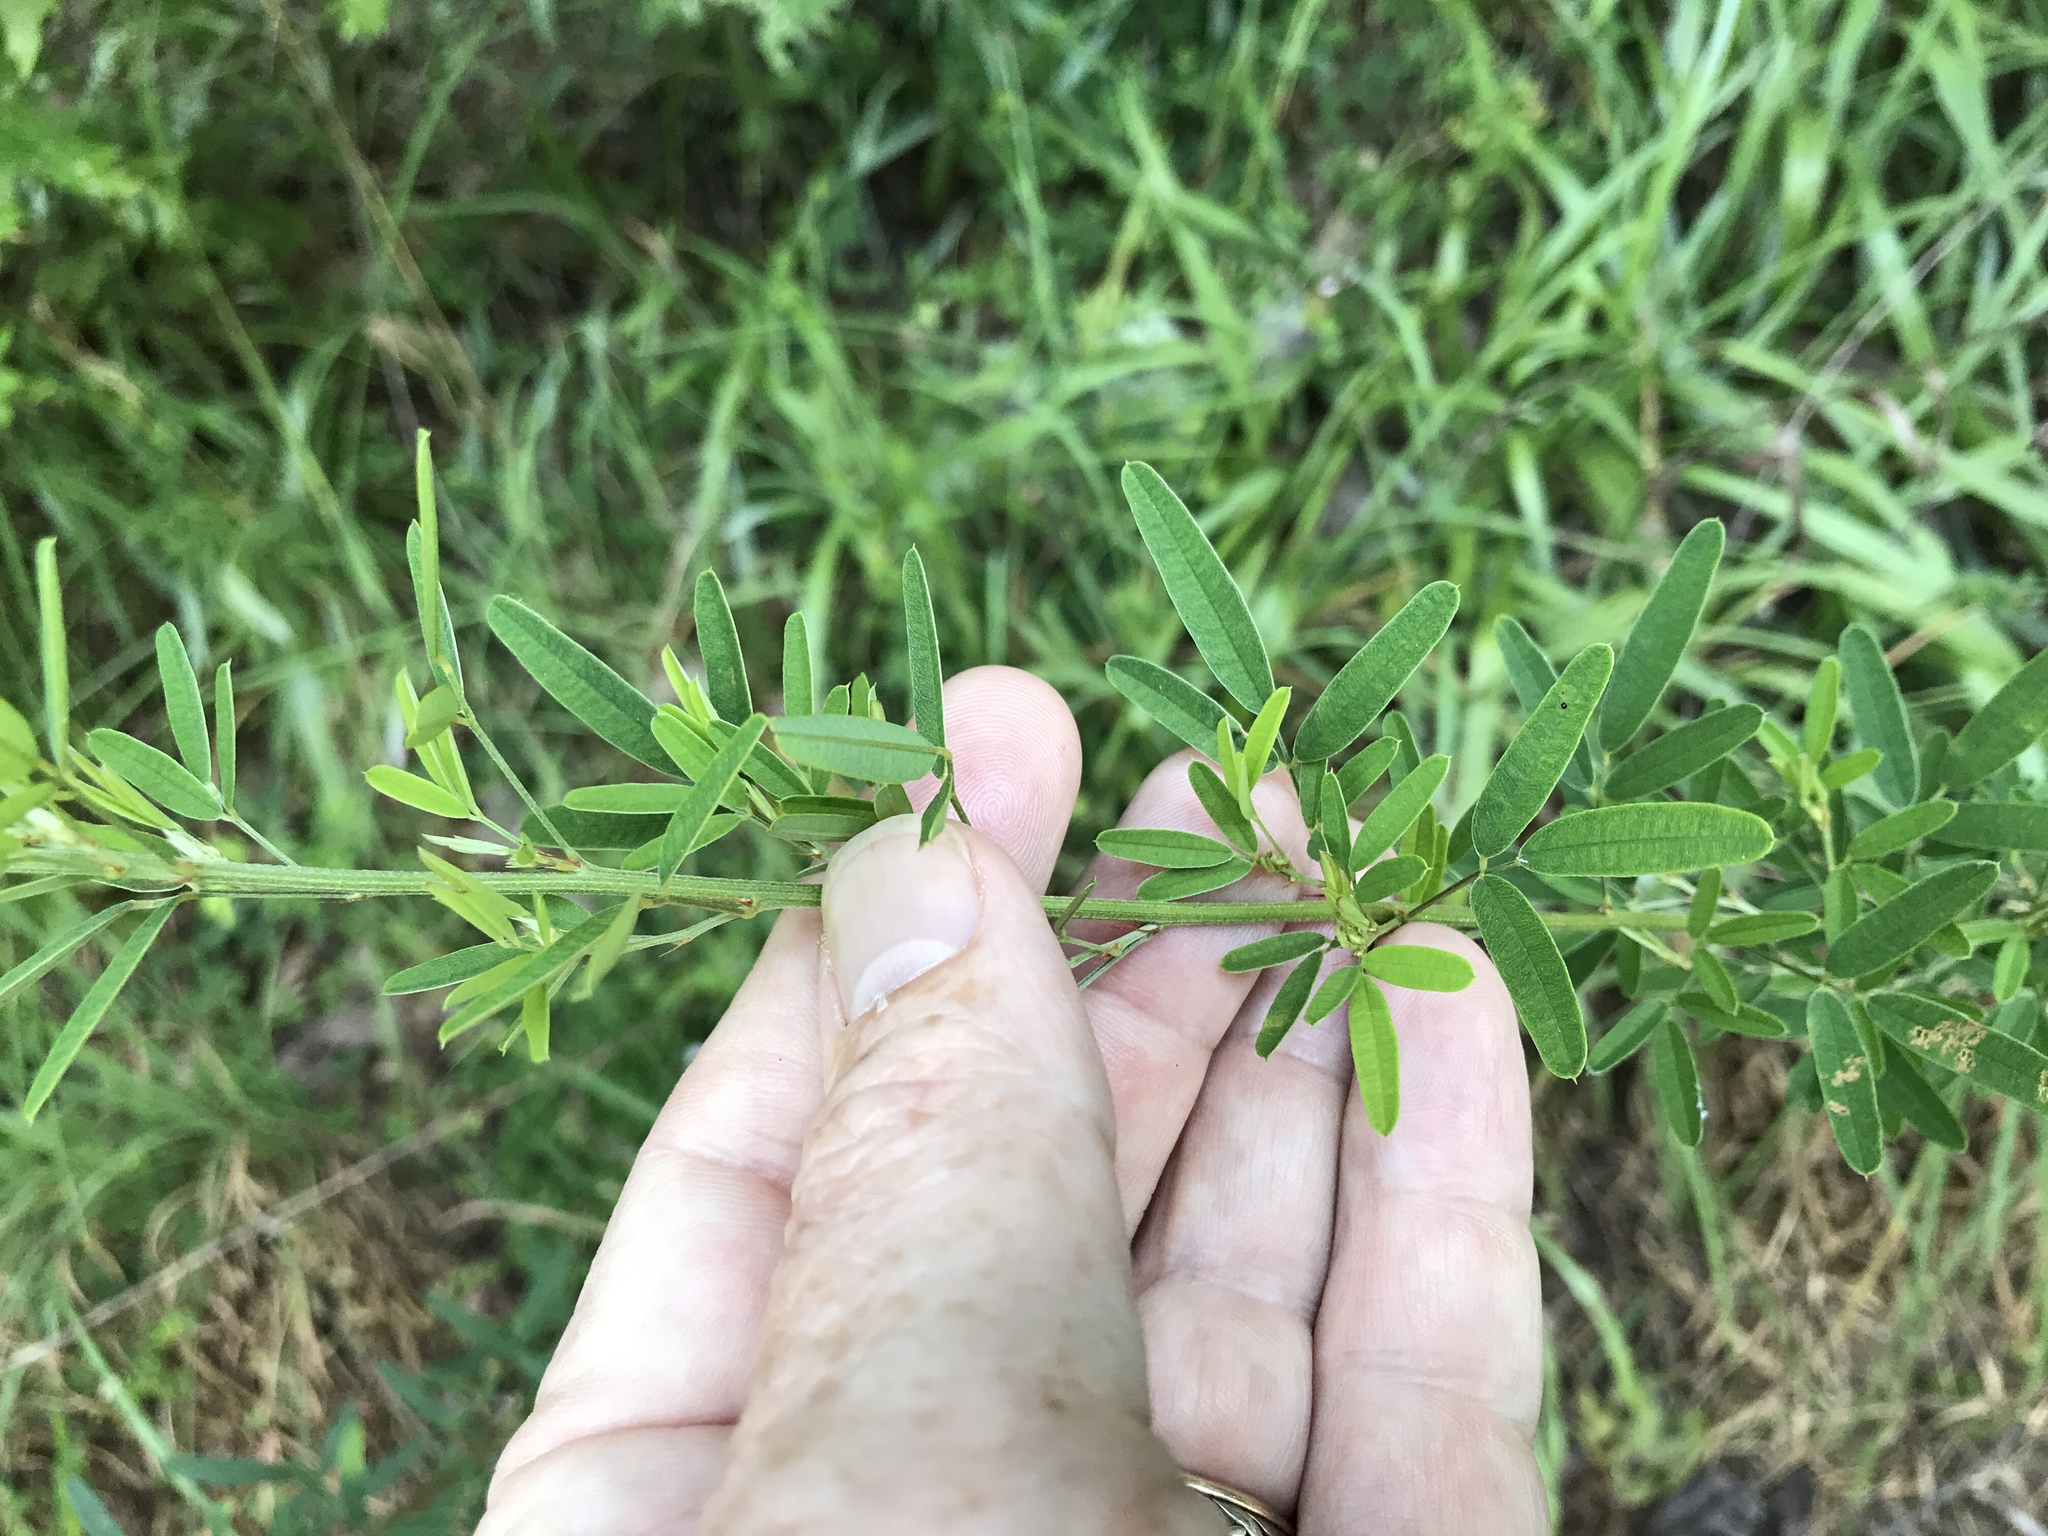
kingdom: Plantae
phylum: Tracheophyta
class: Magnoliopsida
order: Fabales
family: Fabaceae
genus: Lespedeza
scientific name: Lespedeza virginica
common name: Slender bush-clover
